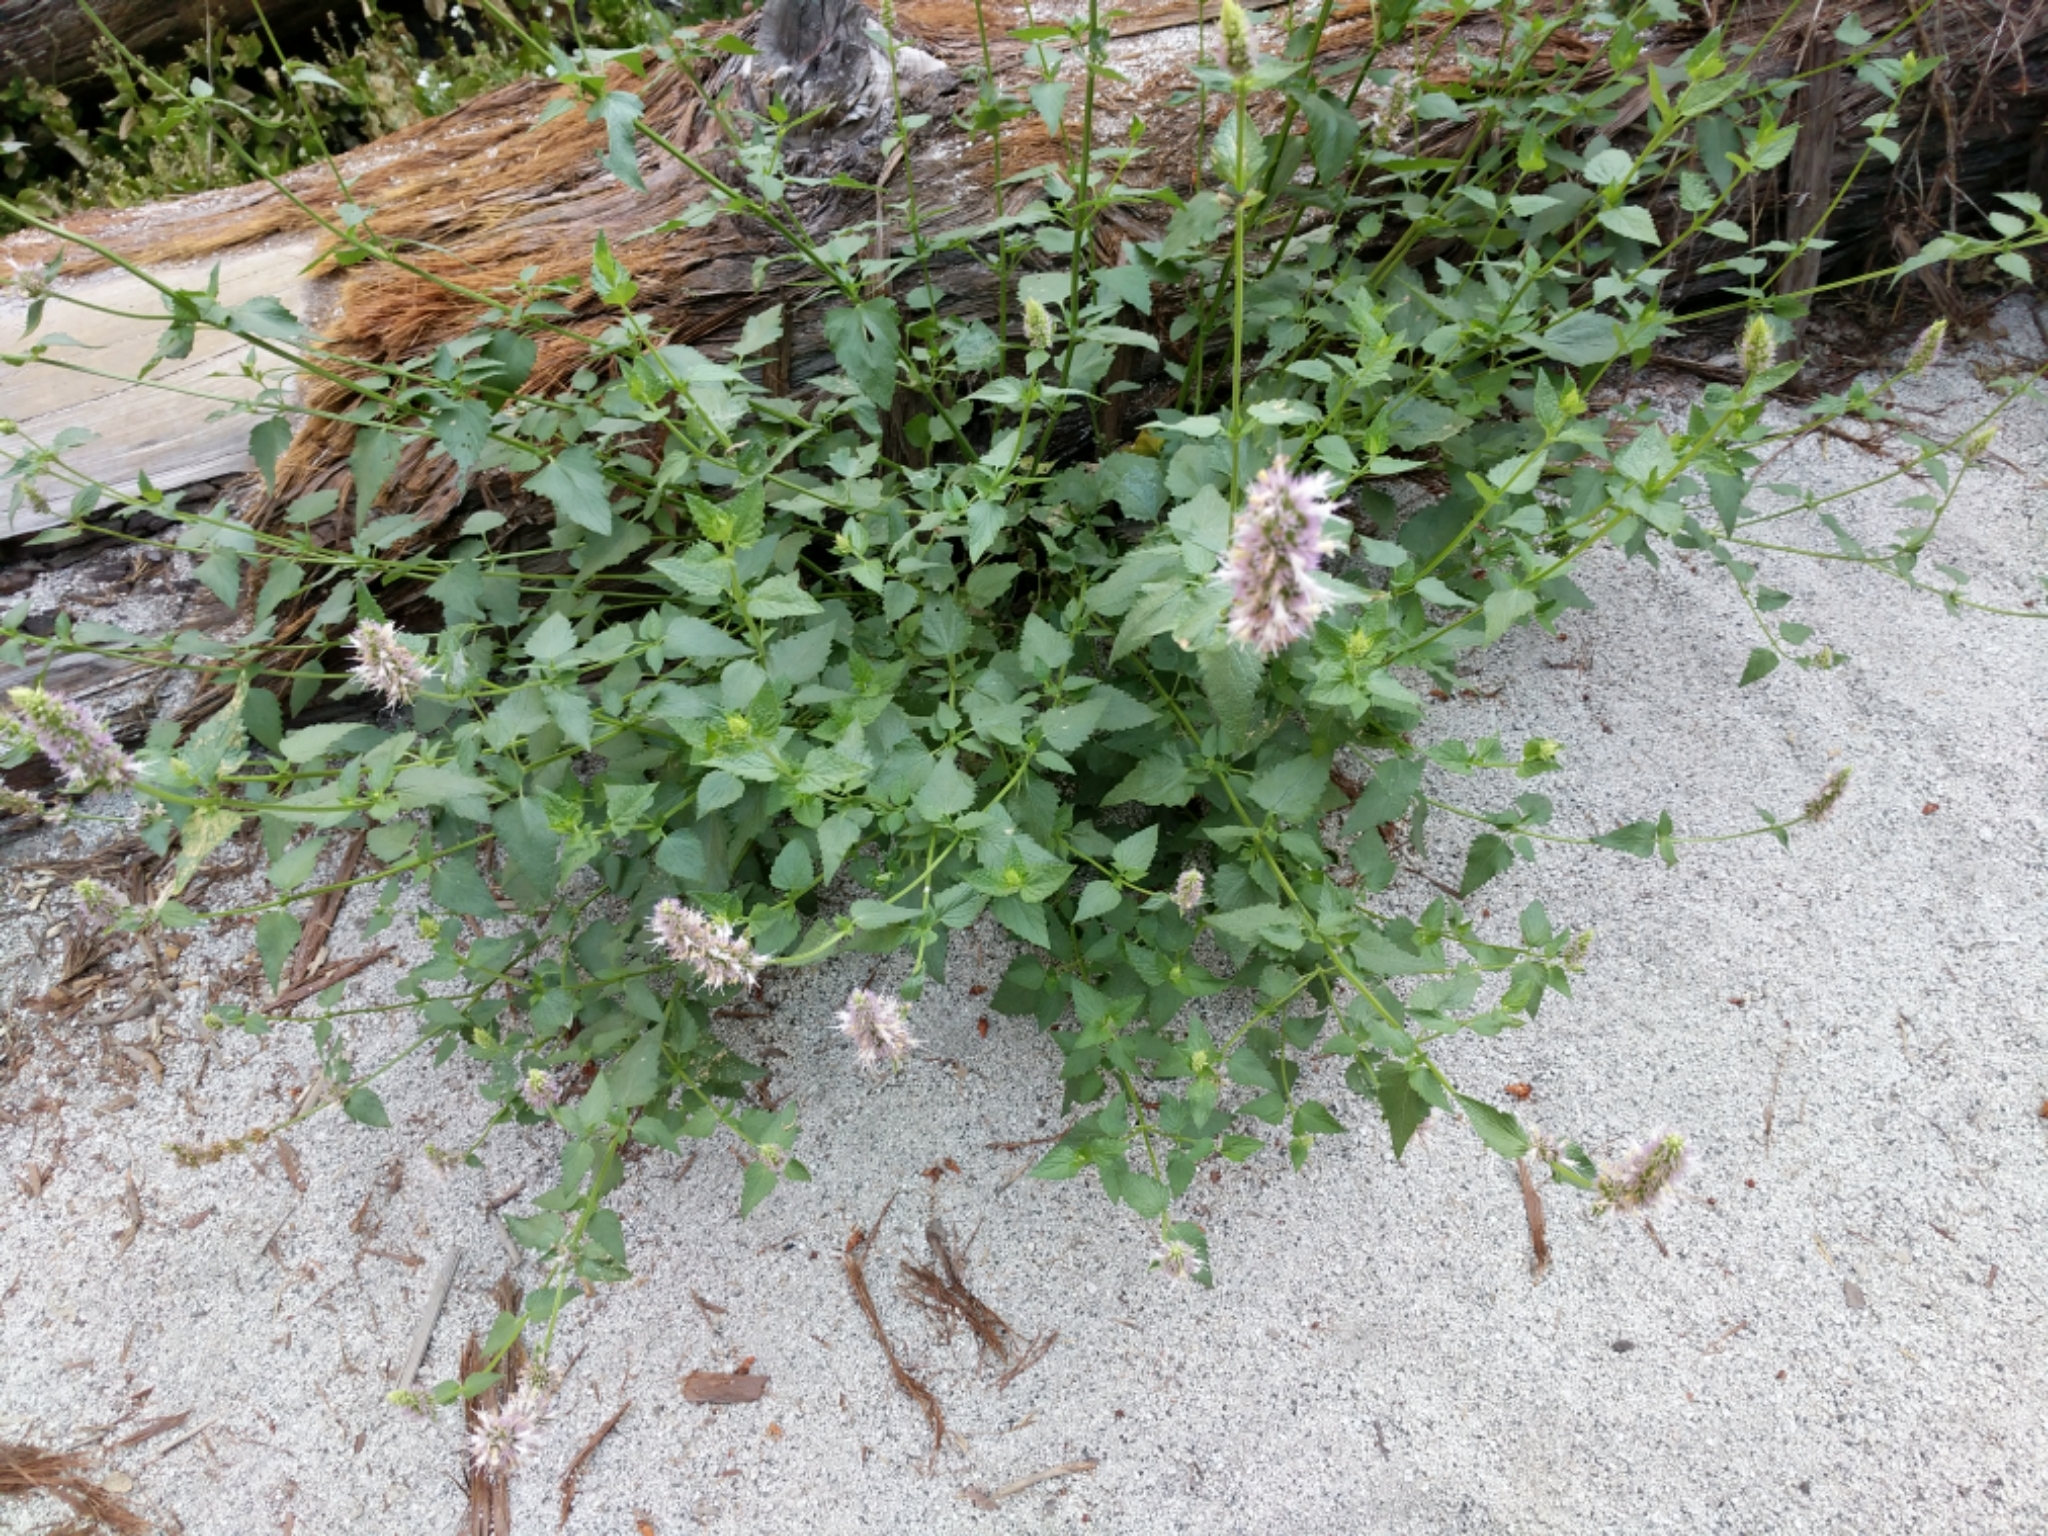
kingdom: Plantae
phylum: Tracheophyta
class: Magnoliopsida
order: Lamiales
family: Lamiaceae
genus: Agastache
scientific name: Agastache urticifolia
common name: Horsemint giant hyssop
